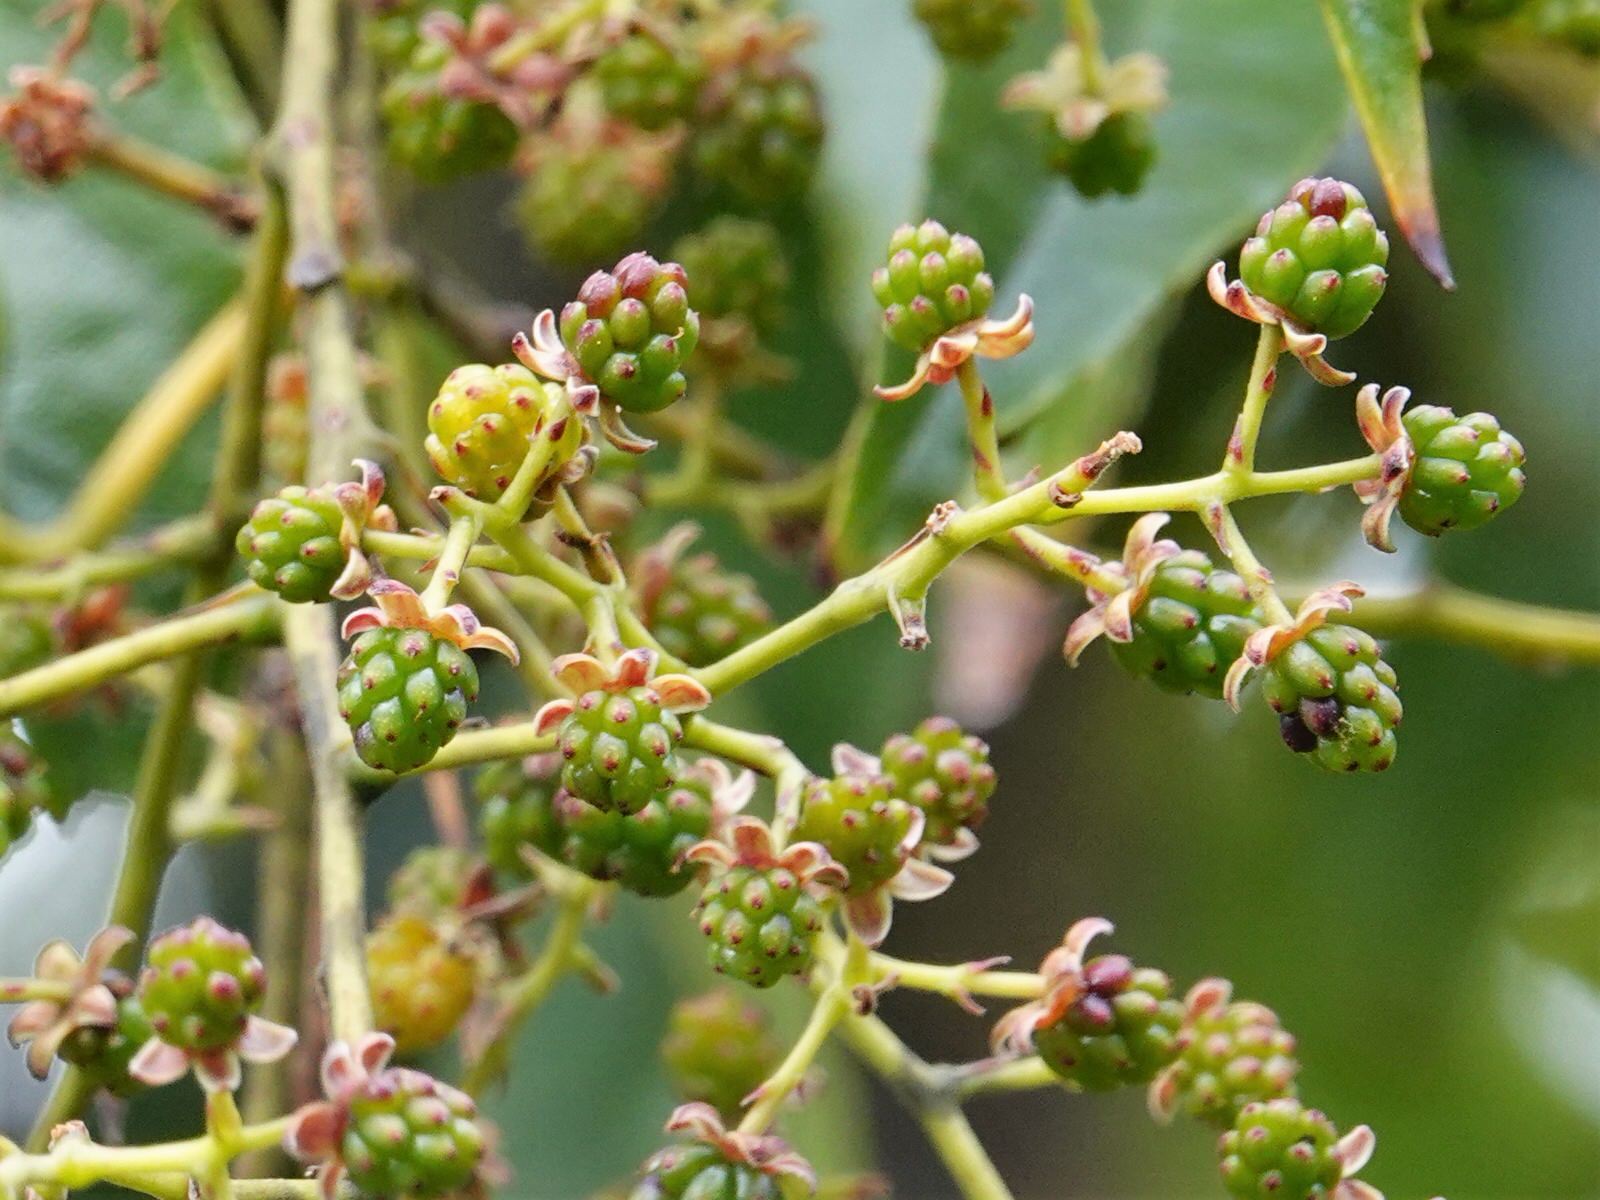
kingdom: Plantae
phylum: Tracheophyta
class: Magnoliopsida
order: Rosales
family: Rosaceae
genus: Rubus
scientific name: Rubus cissoides
